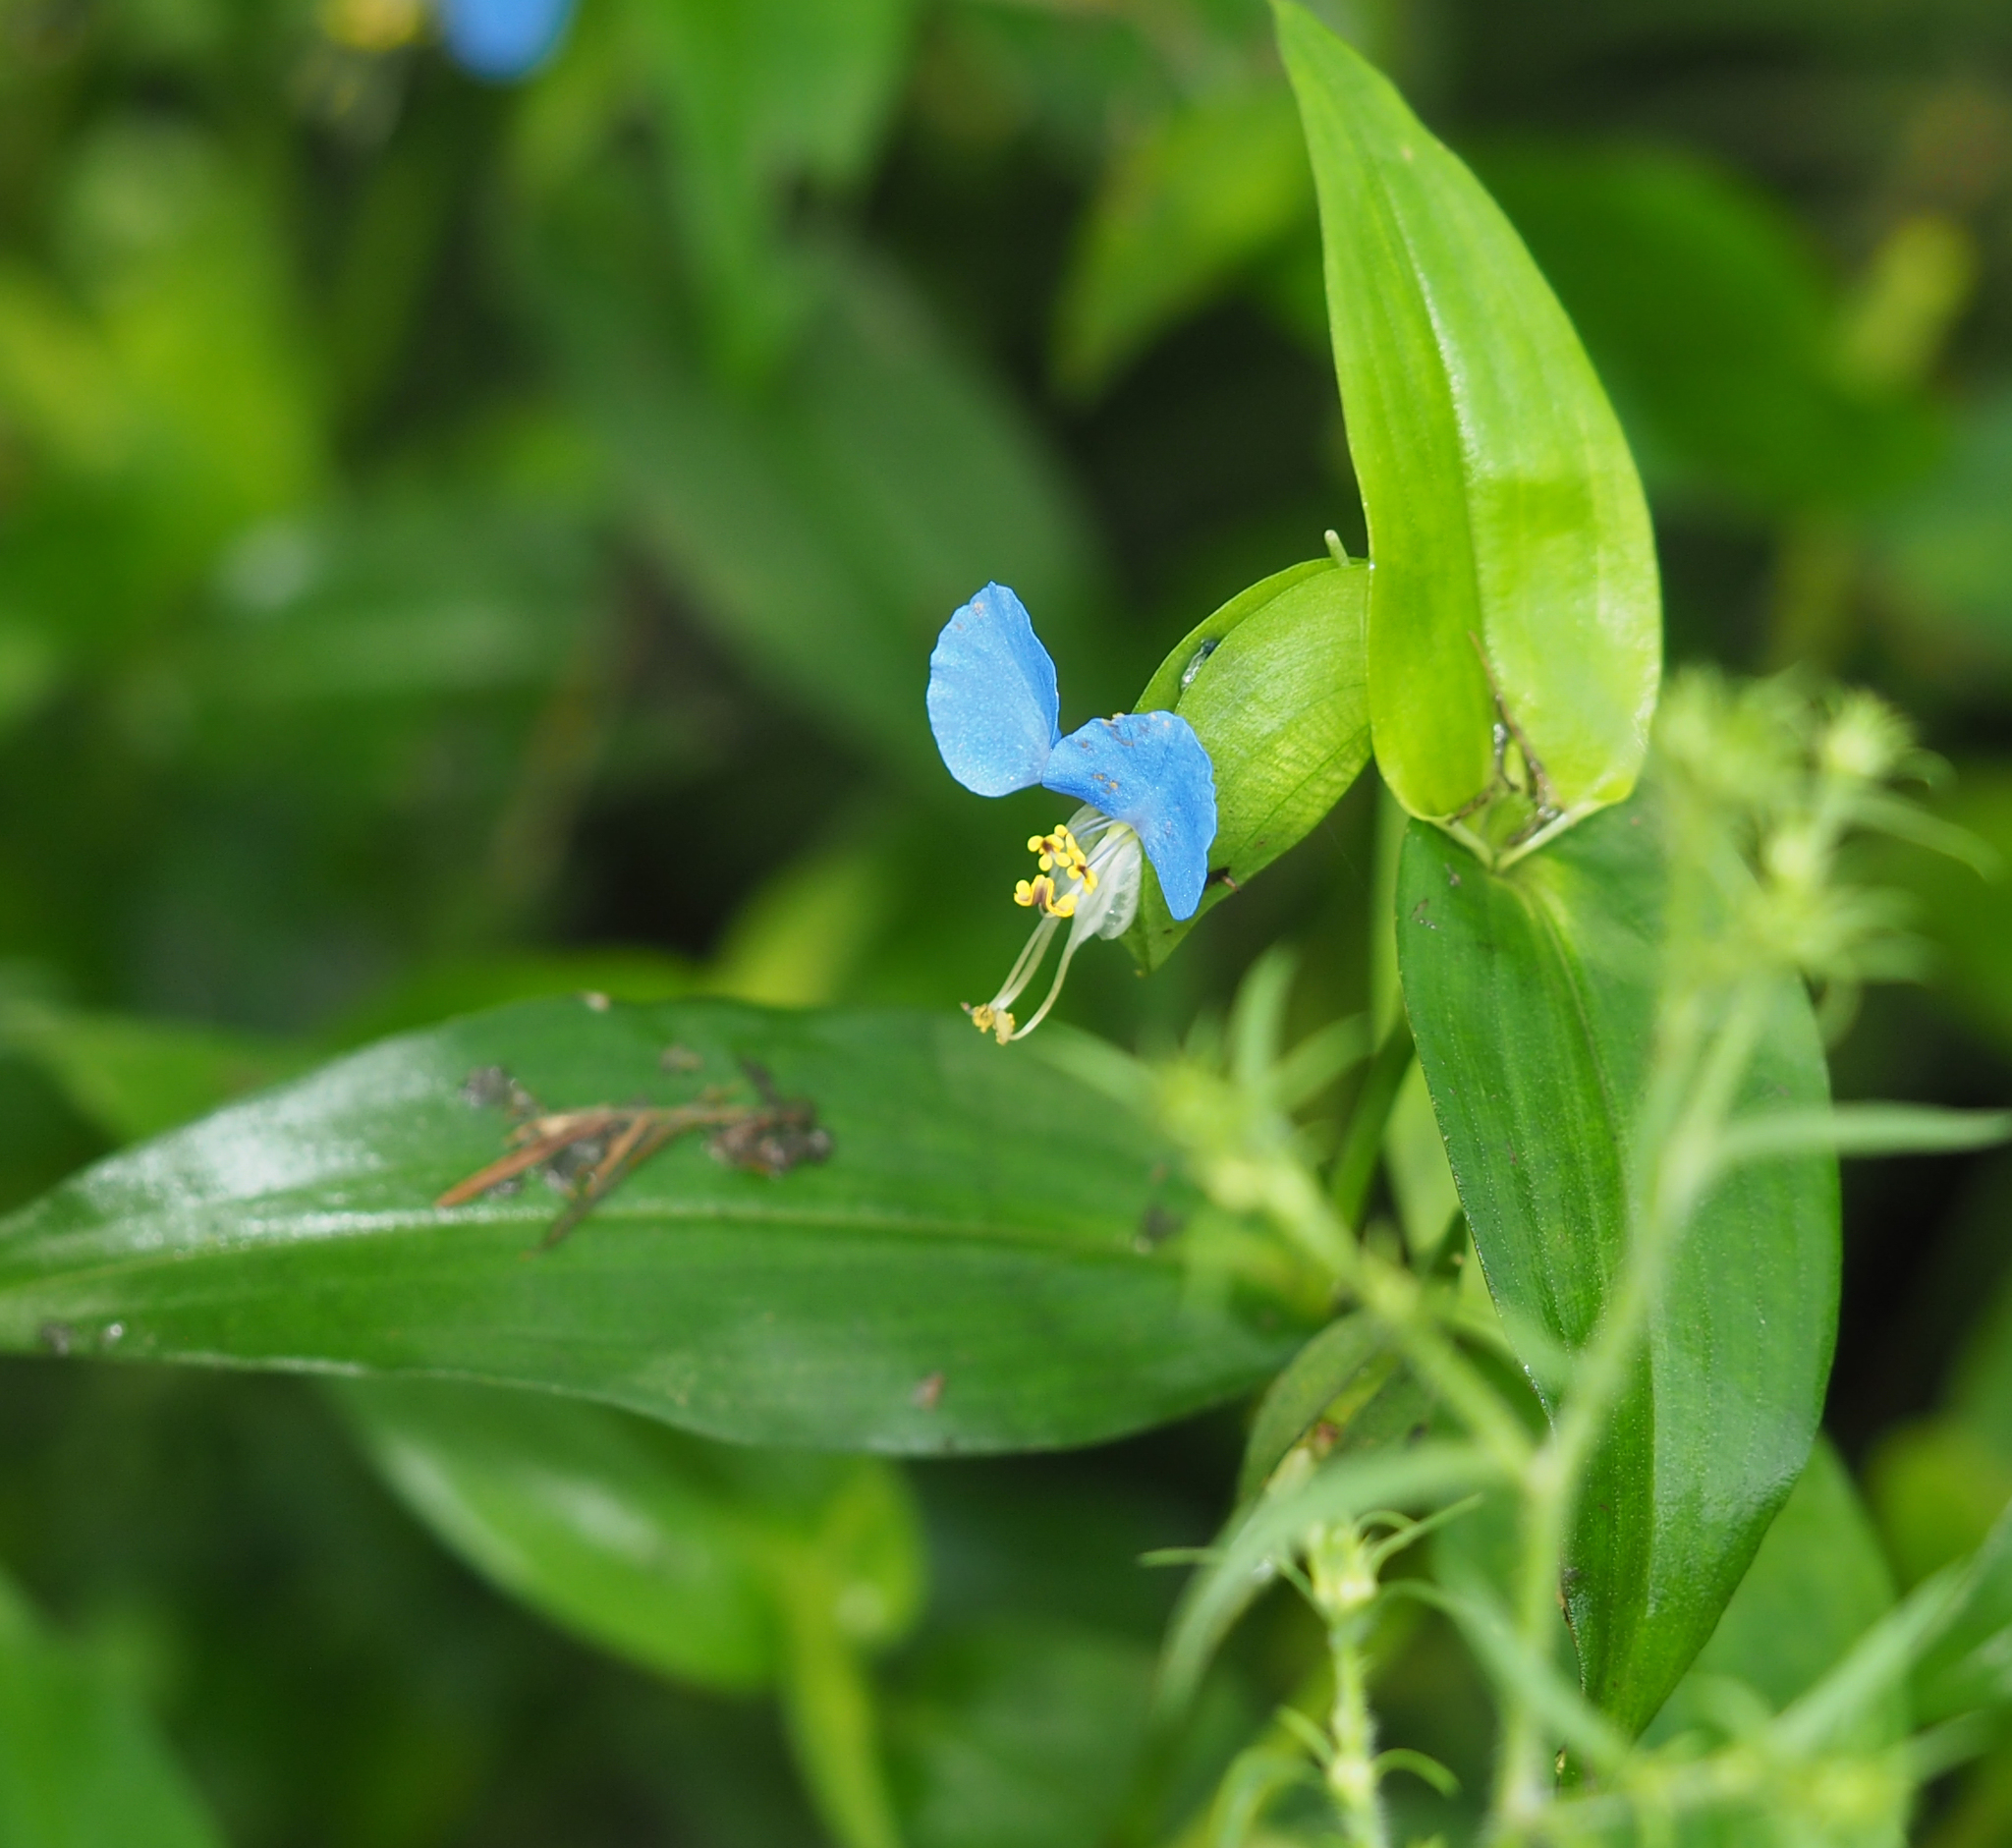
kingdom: Plantae
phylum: Tracheophyta
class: Liliopsida
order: Commelinales
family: Commelinaceae
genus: Commelina
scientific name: Commelina communis
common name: Asiatic dayflower
